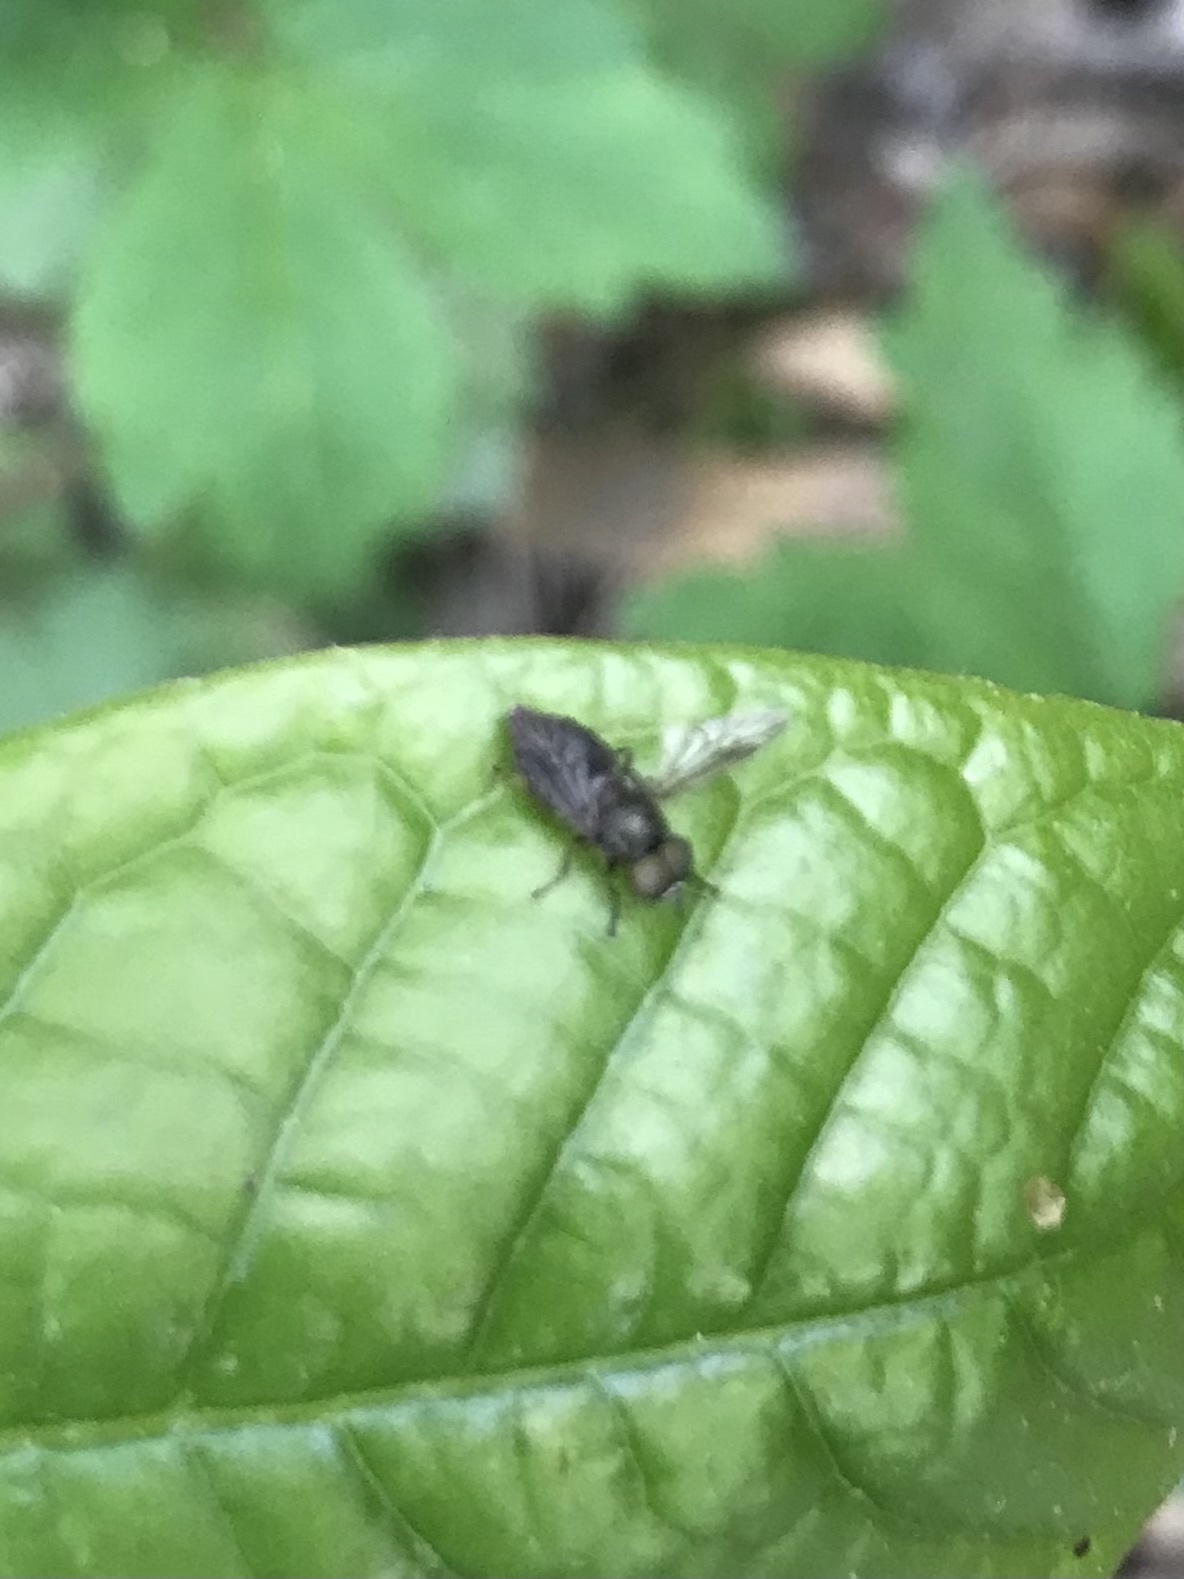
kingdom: Animalia
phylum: Arthropoda
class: Insecta
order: Diptera
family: Stratiomyidae
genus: Allognosta
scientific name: Allognosta
